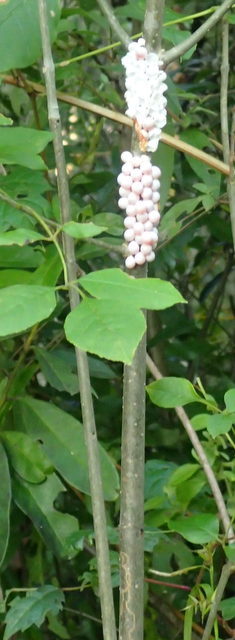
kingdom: Animalia
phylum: Mollusca
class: Gastropoda
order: Architaenioglossa
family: Ampullariidae
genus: Pomacea
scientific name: Pomacea paludosa
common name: Florida applesnail
